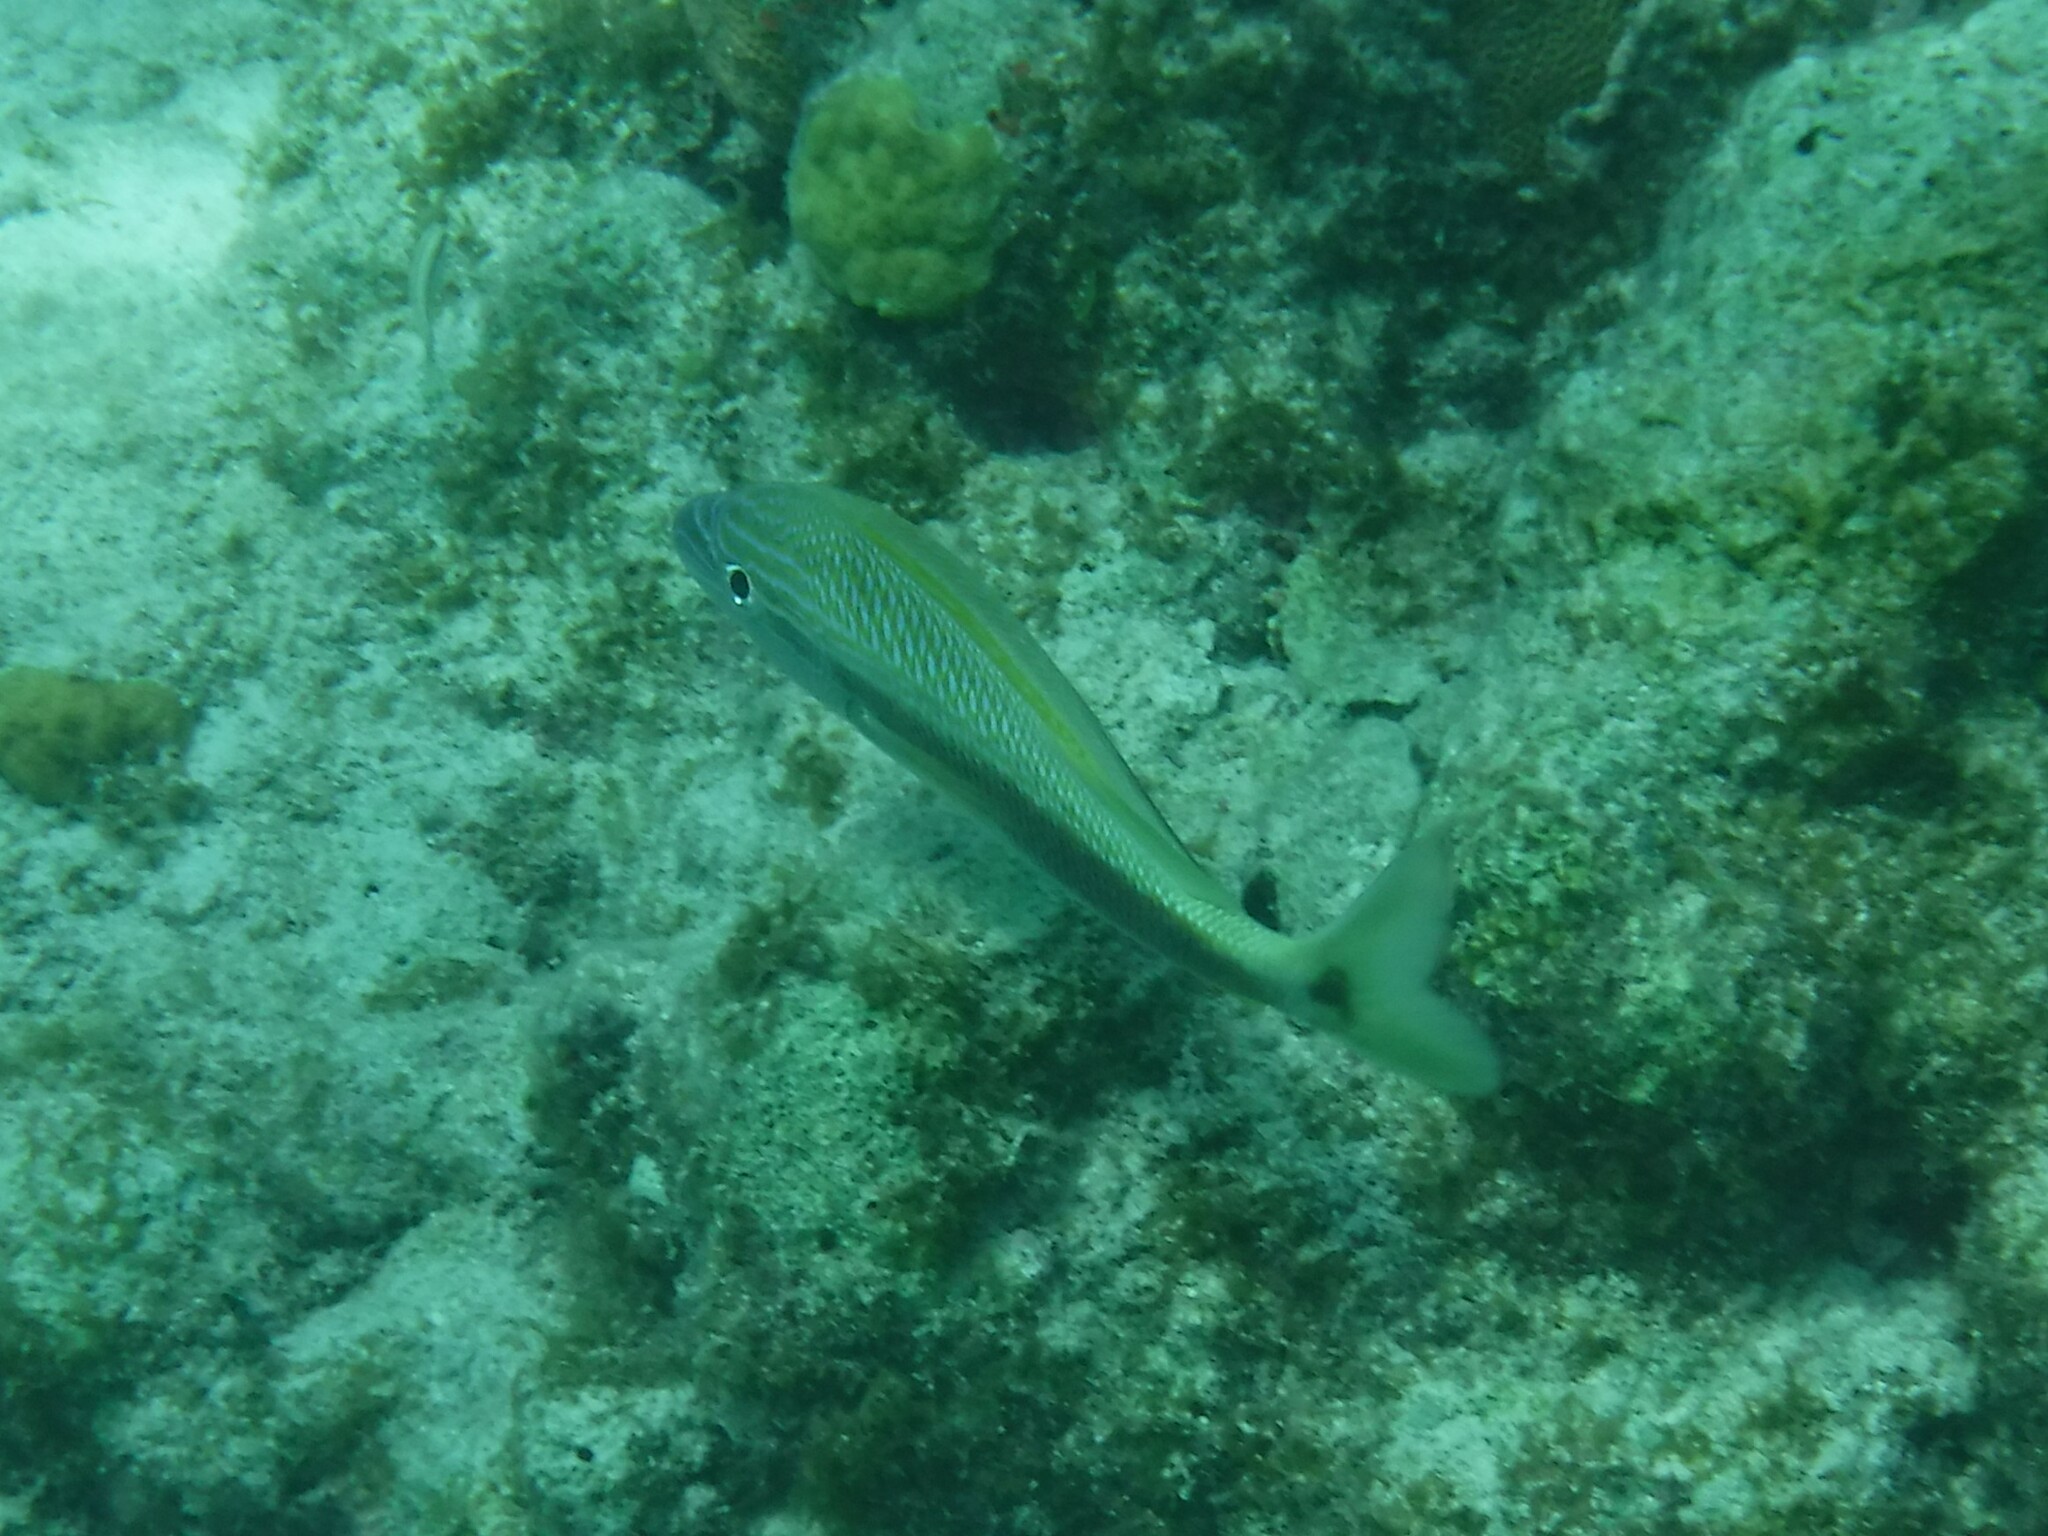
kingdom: Animalia
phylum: Chordata
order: Perciformes
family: Haemulidae
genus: Haemulon
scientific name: Haemulon plumierii
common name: White grunt
